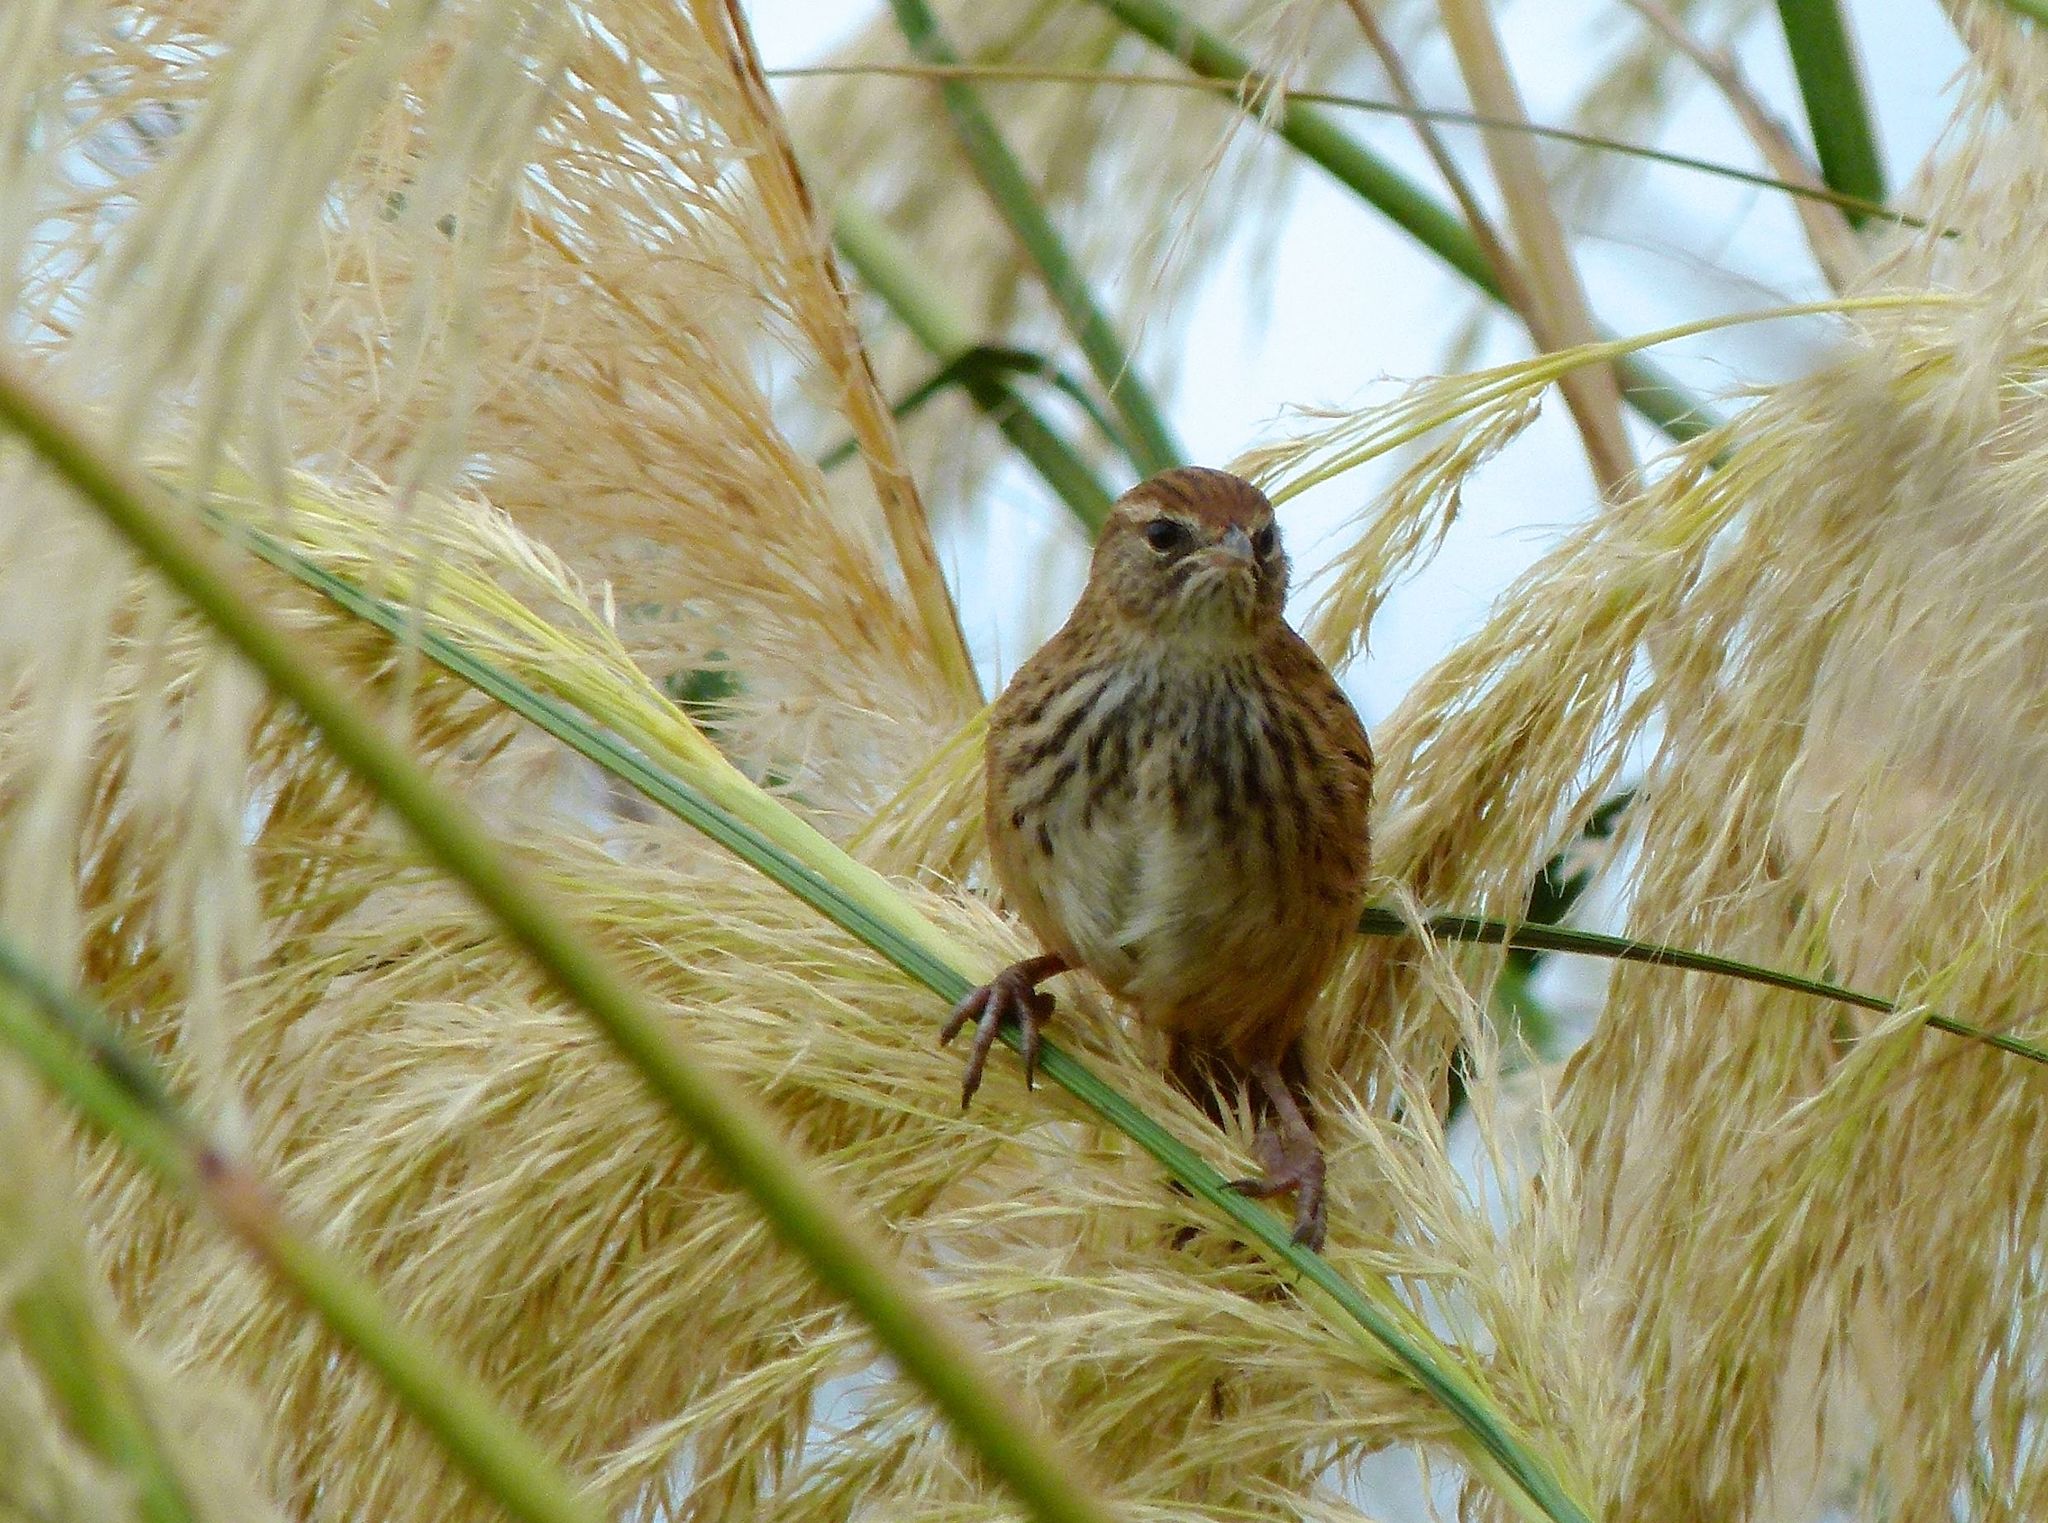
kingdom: Animalia
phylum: Chordata
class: Aves
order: Passeriformes
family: Locustellidae
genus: Poodytes
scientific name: Poodytes punctatus
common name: New zealand fernbird
